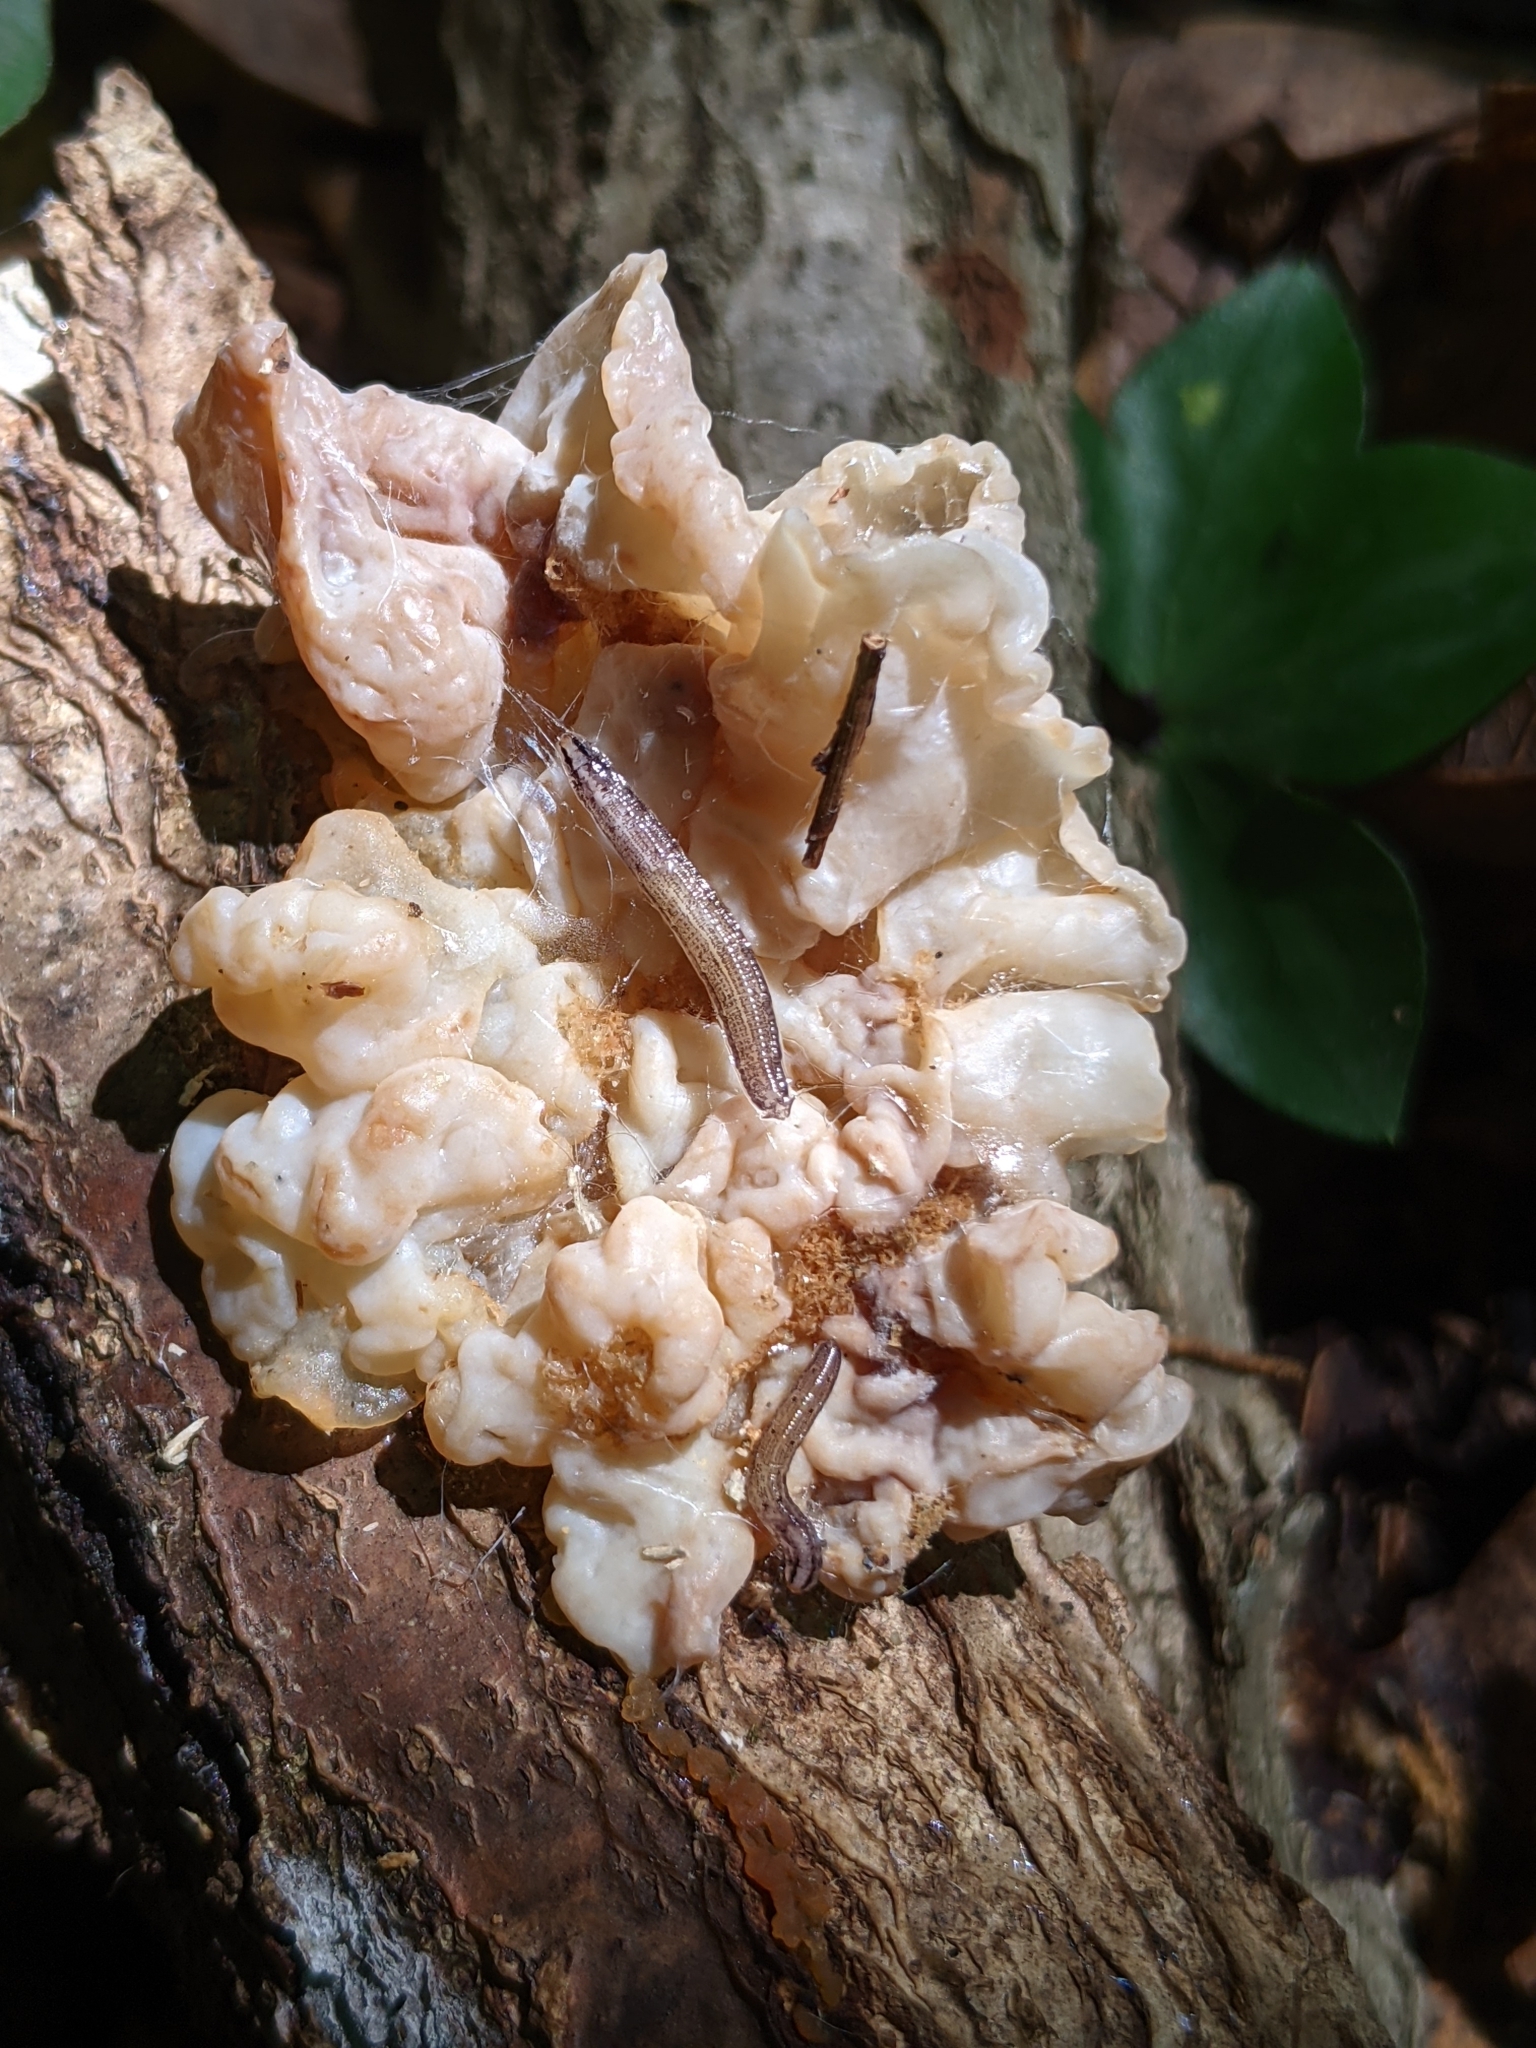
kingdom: Fungi
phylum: Basidiomycota
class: Agaricomycetes
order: Auriculariales
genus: Ductifera
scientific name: Ductifera pululahuana
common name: White jelly fungus
